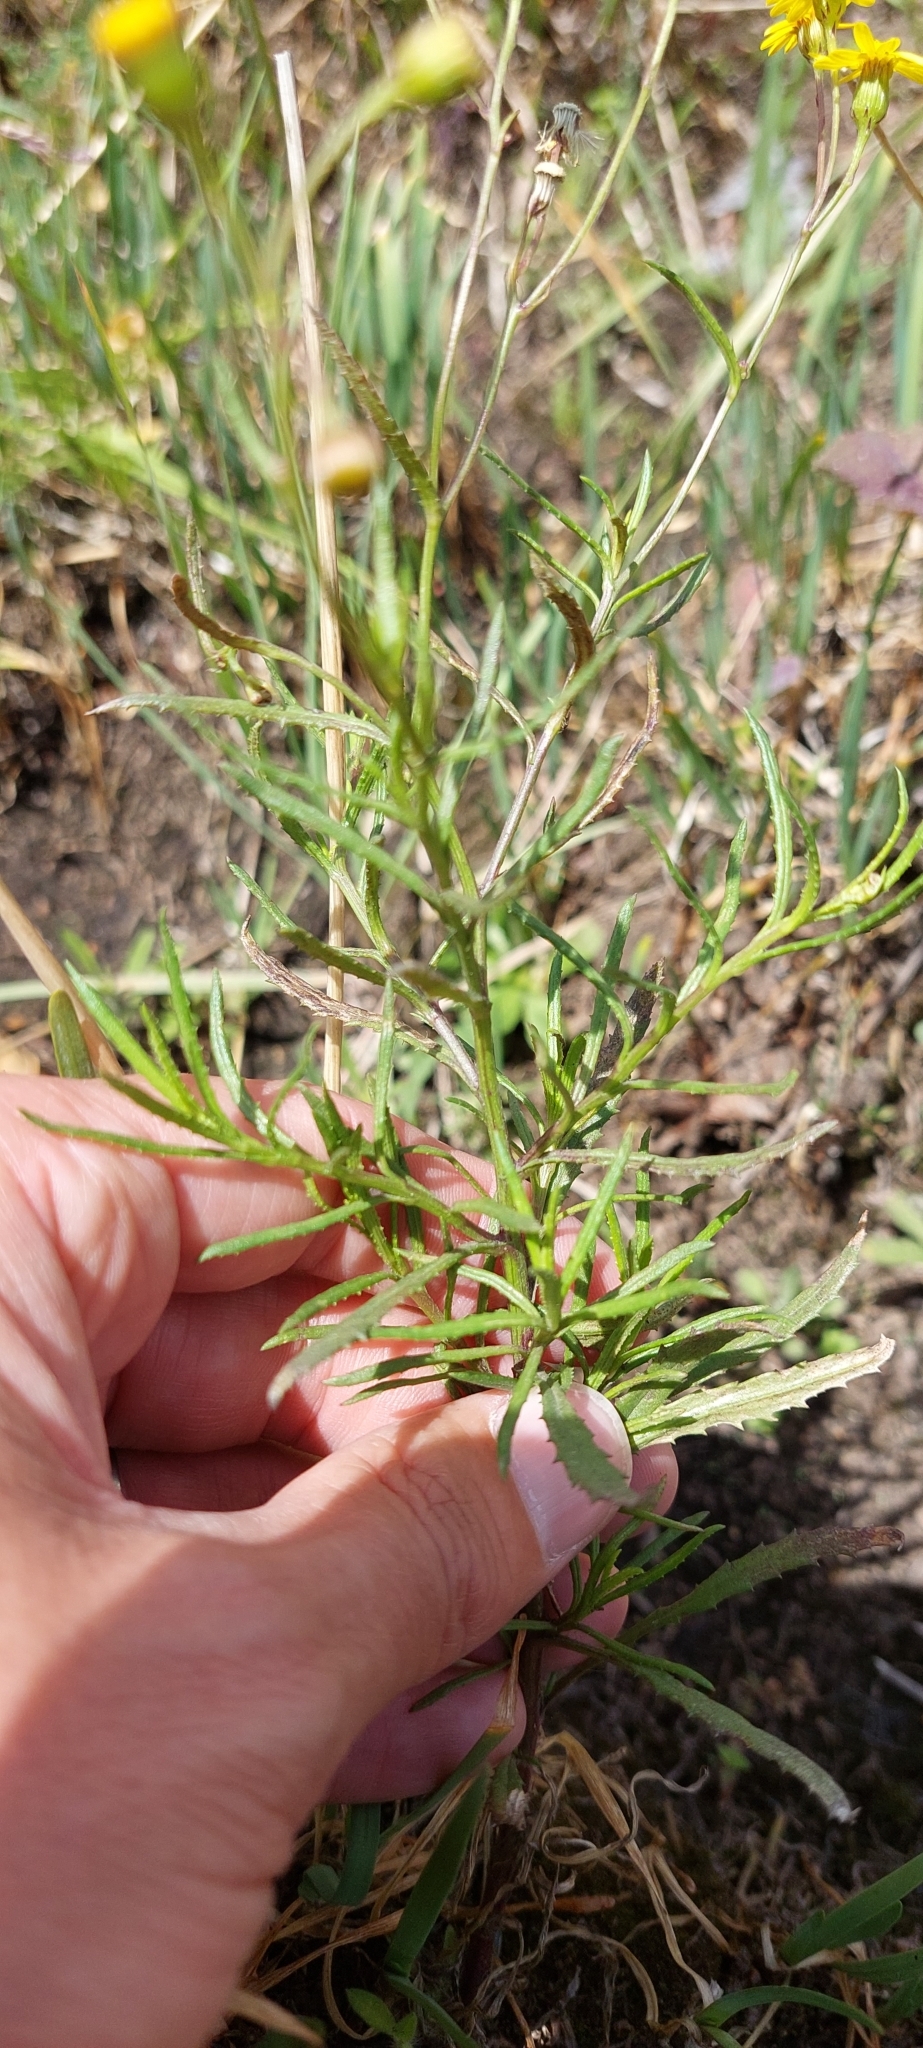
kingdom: Plantae
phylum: Tracheophyta
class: Magnoliopsida
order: Asterales
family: Asteraceae
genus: Senecio
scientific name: Senecio madagascariensis
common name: Madagascar ragwort
